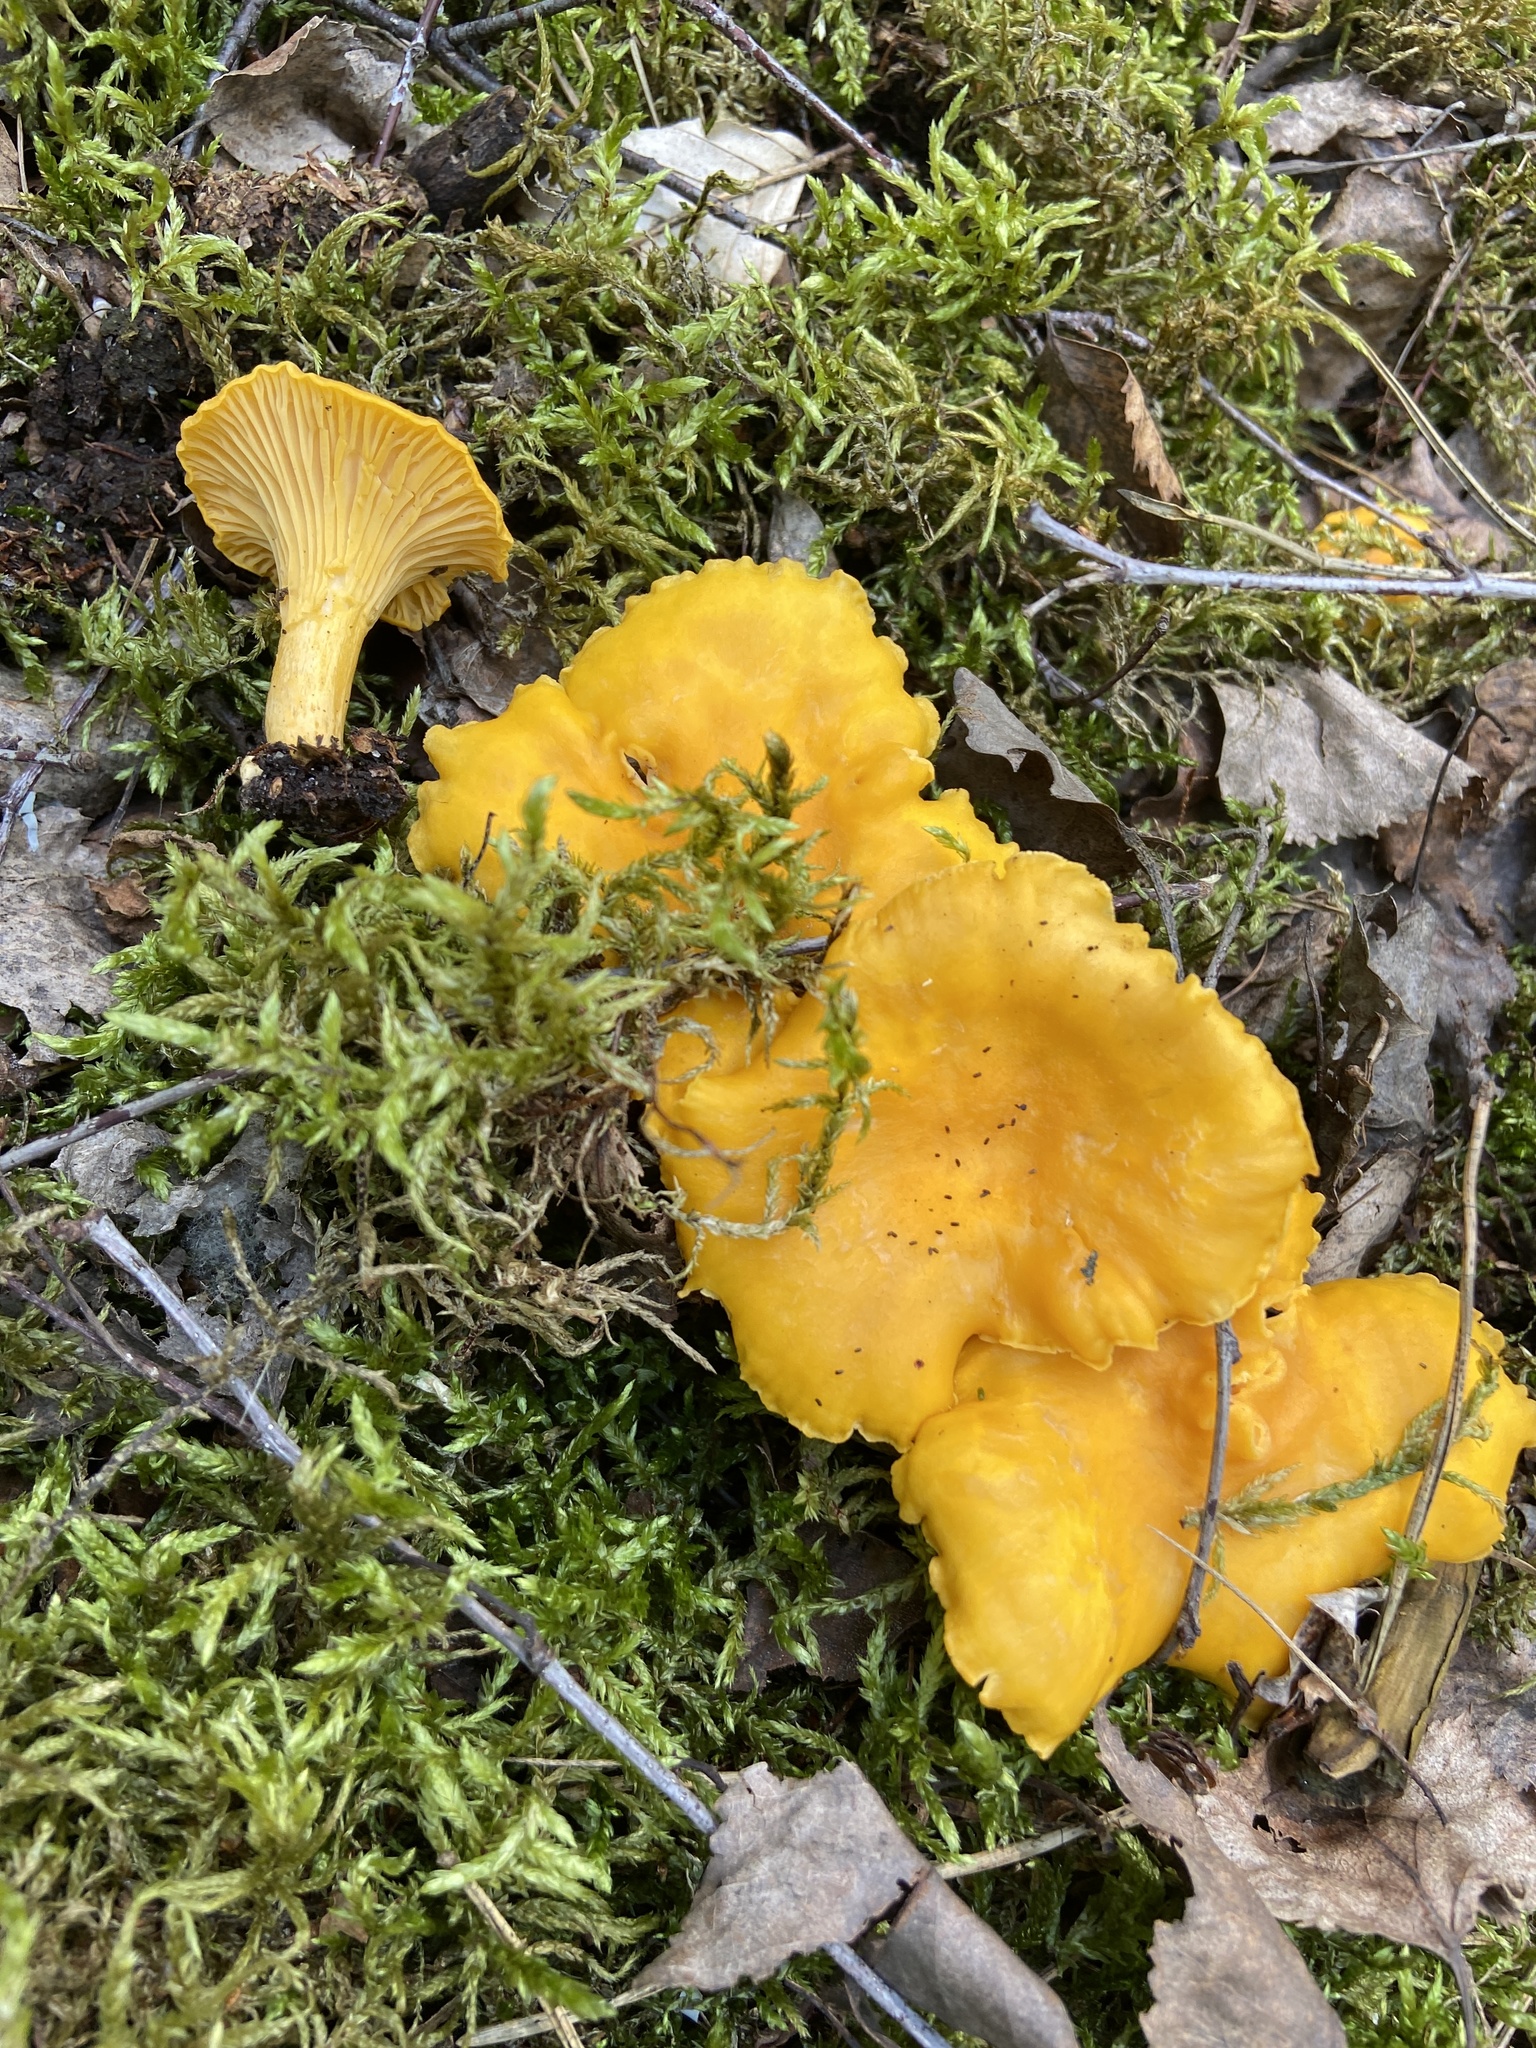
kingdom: Fungi
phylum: Basidiomycota
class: Agaricomycetes
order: Cantharellales
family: Hydnaceae
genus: Cantharellus
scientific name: Cantharellus cibarius
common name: Chanterelle
